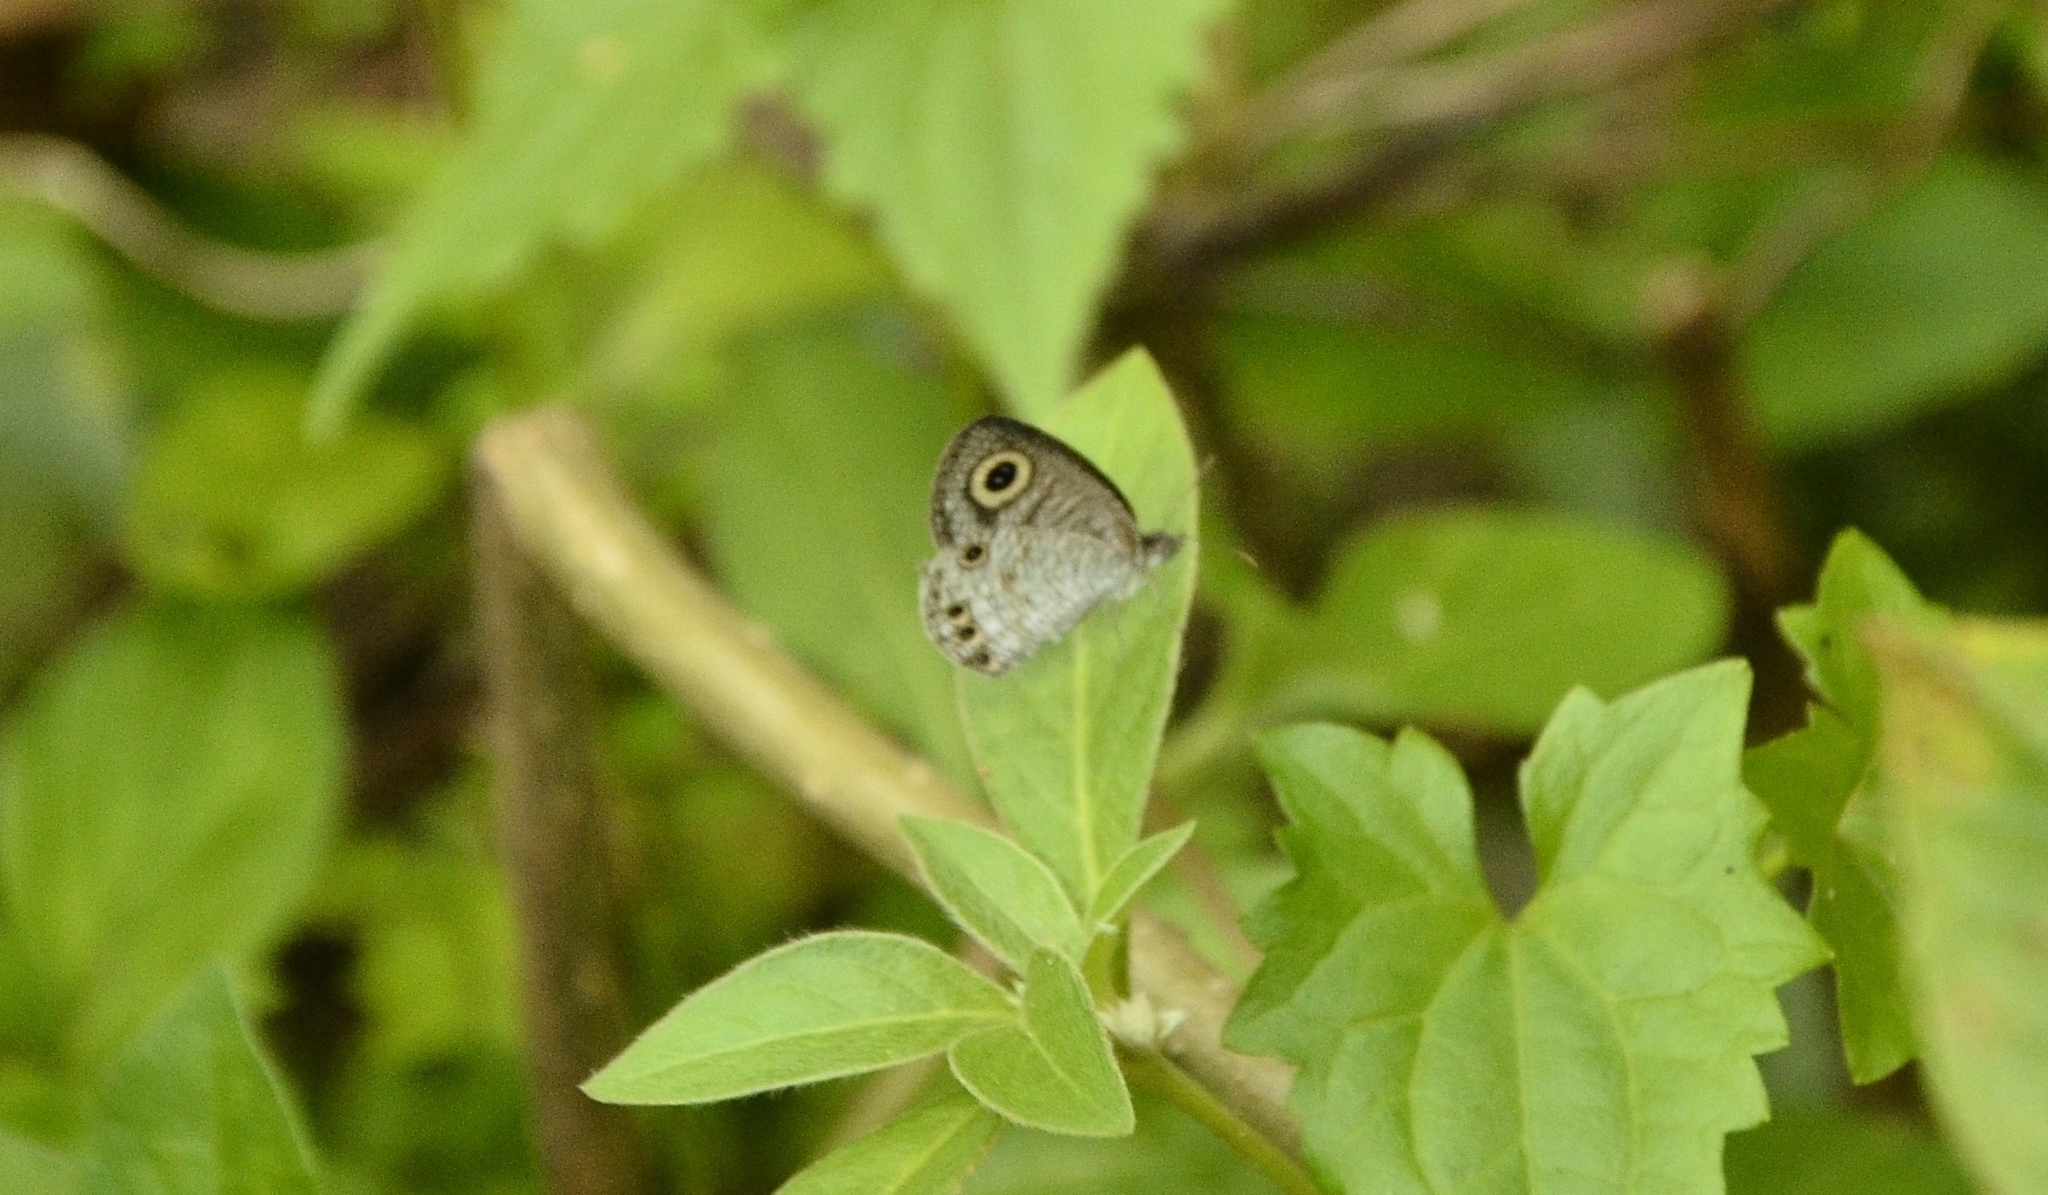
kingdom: Animalia
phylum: Arthropoda
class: Insecta
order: Lepidoptera
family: Nymphalidae
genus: Ypthima
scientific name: Ypthima huebneri
